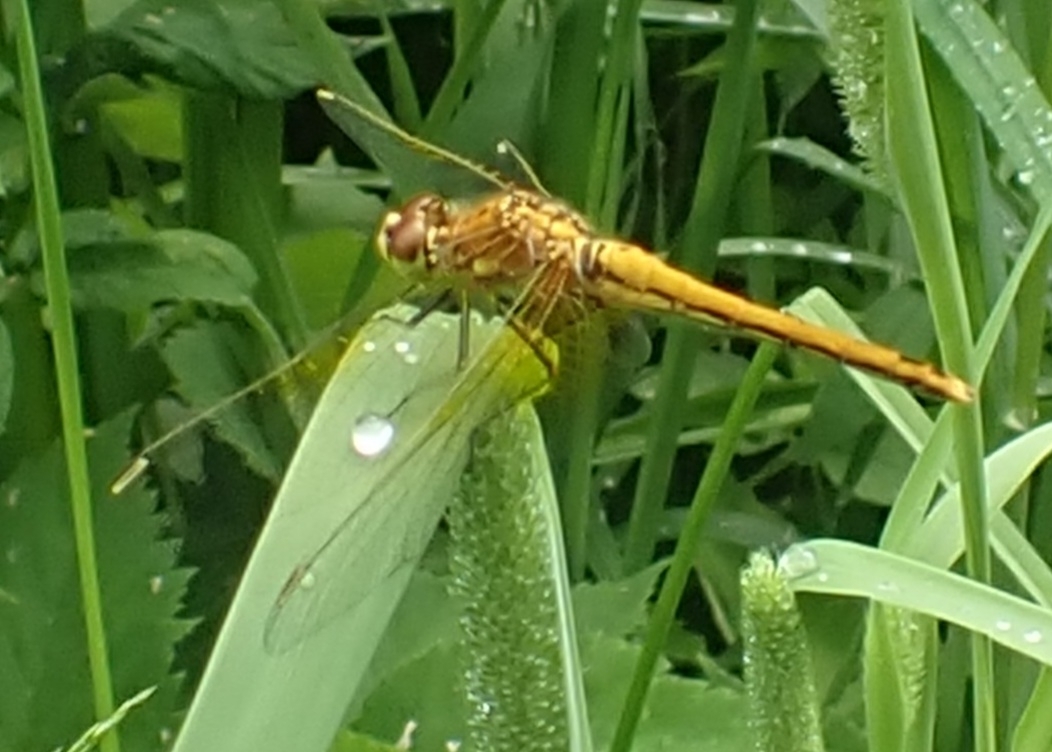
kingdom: Animalia
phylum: Arthropoda
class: Insecta
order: Odonata
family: Libellulidae
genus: Sympetrum
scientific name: Sympetrum flaveolum
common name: Yellow-winged darter
